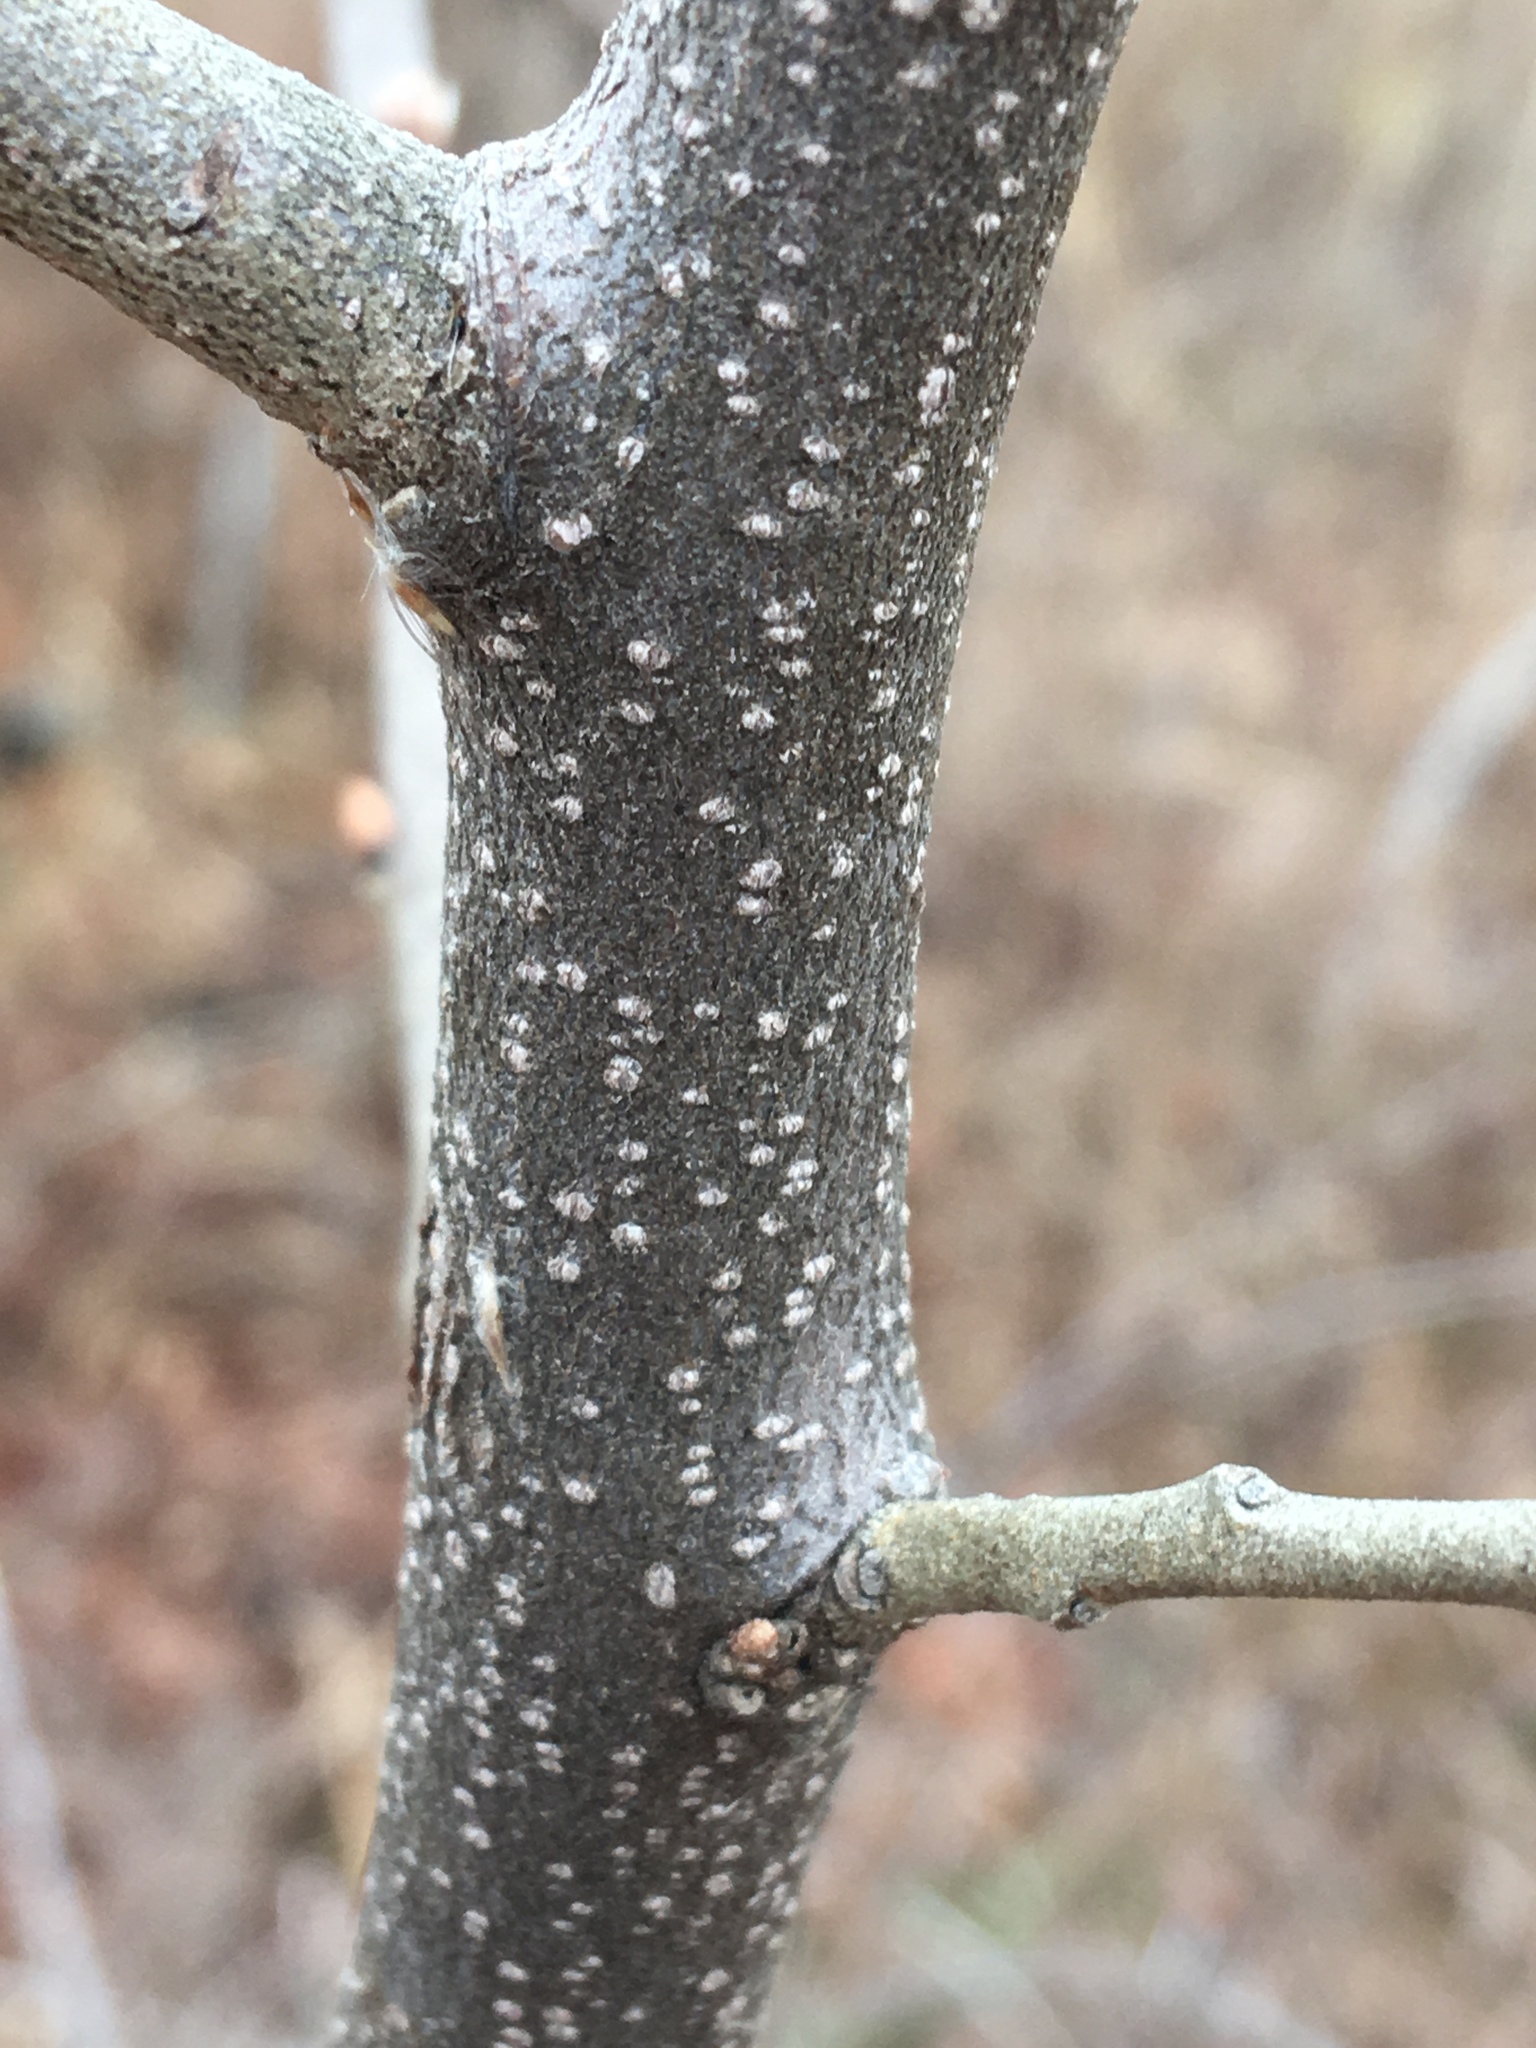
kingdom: Plantae
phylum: Tracheophyta
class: Magnoliopsida
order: Rosales
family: Rosaceae
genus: Pyrus
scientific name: Pyrus calleryana
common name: Callery pear
